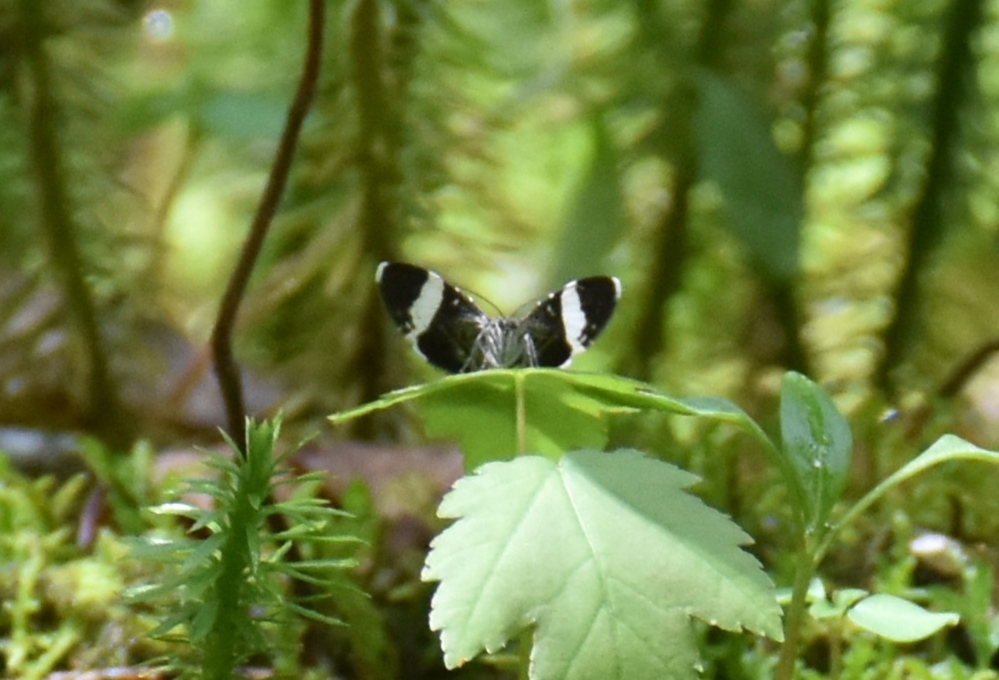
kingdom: Animalia
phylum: Arthropoda
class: Insecta
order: Lepidoptera
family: Geometridae
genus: Trichodezia
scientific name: Trichodezia albovittata
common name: White striped black
